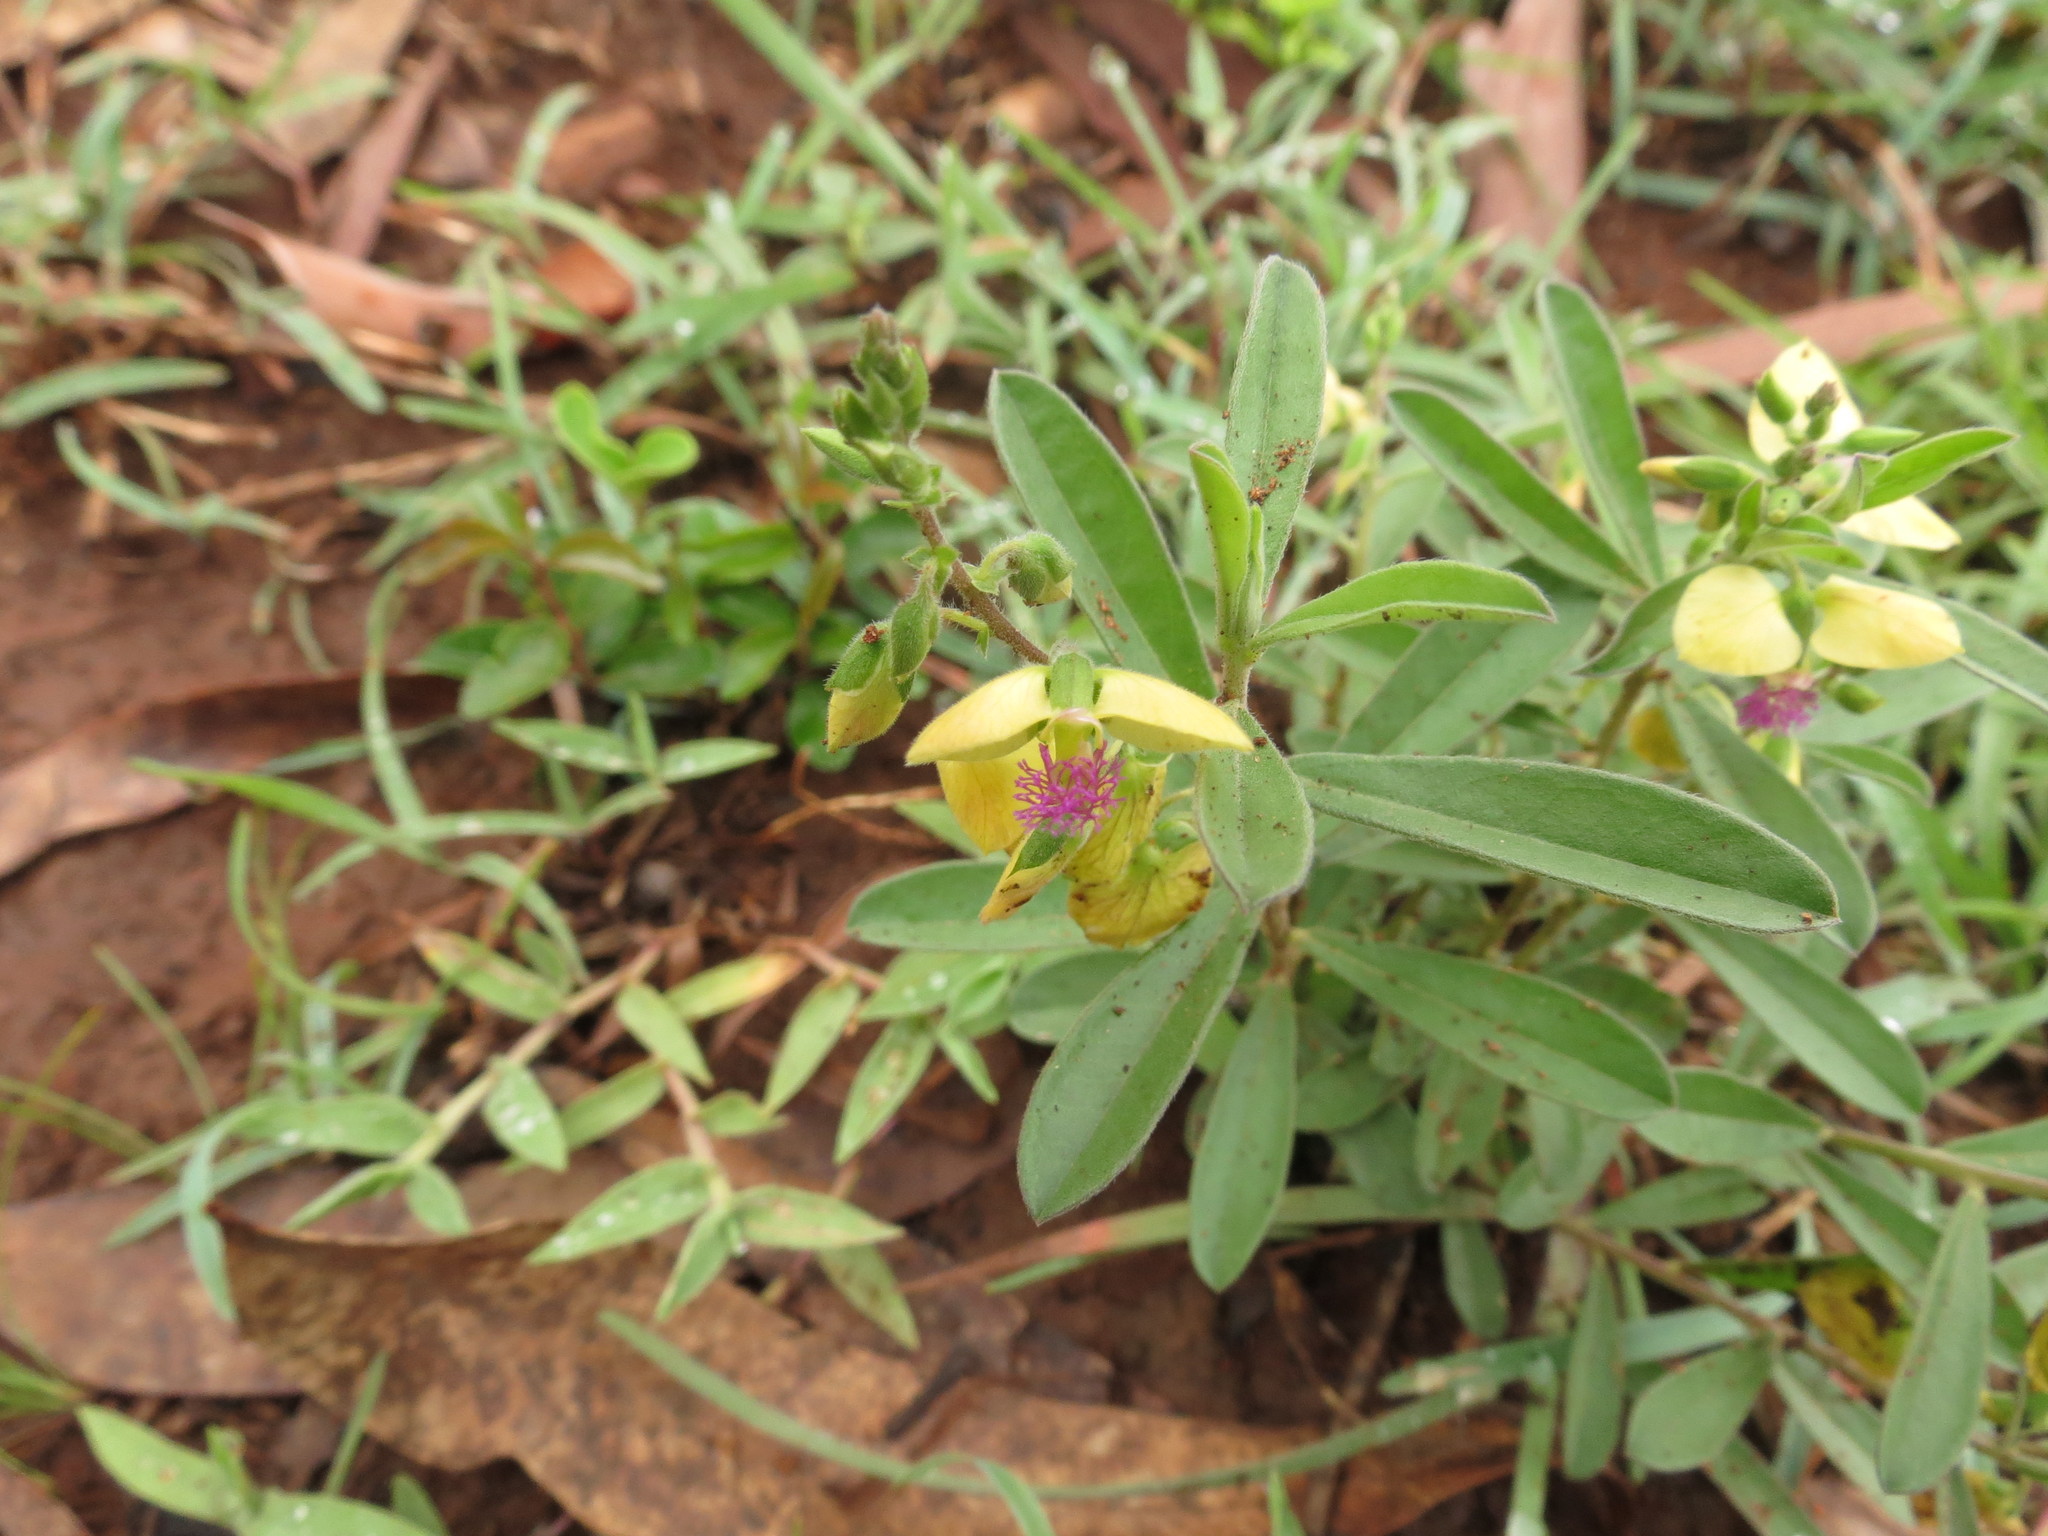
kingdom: Plantae
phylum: Tracheophyta
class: Magnoliopsida
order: Fabales
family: Polygalaceae
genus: Polygala
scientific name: Polygala javana
